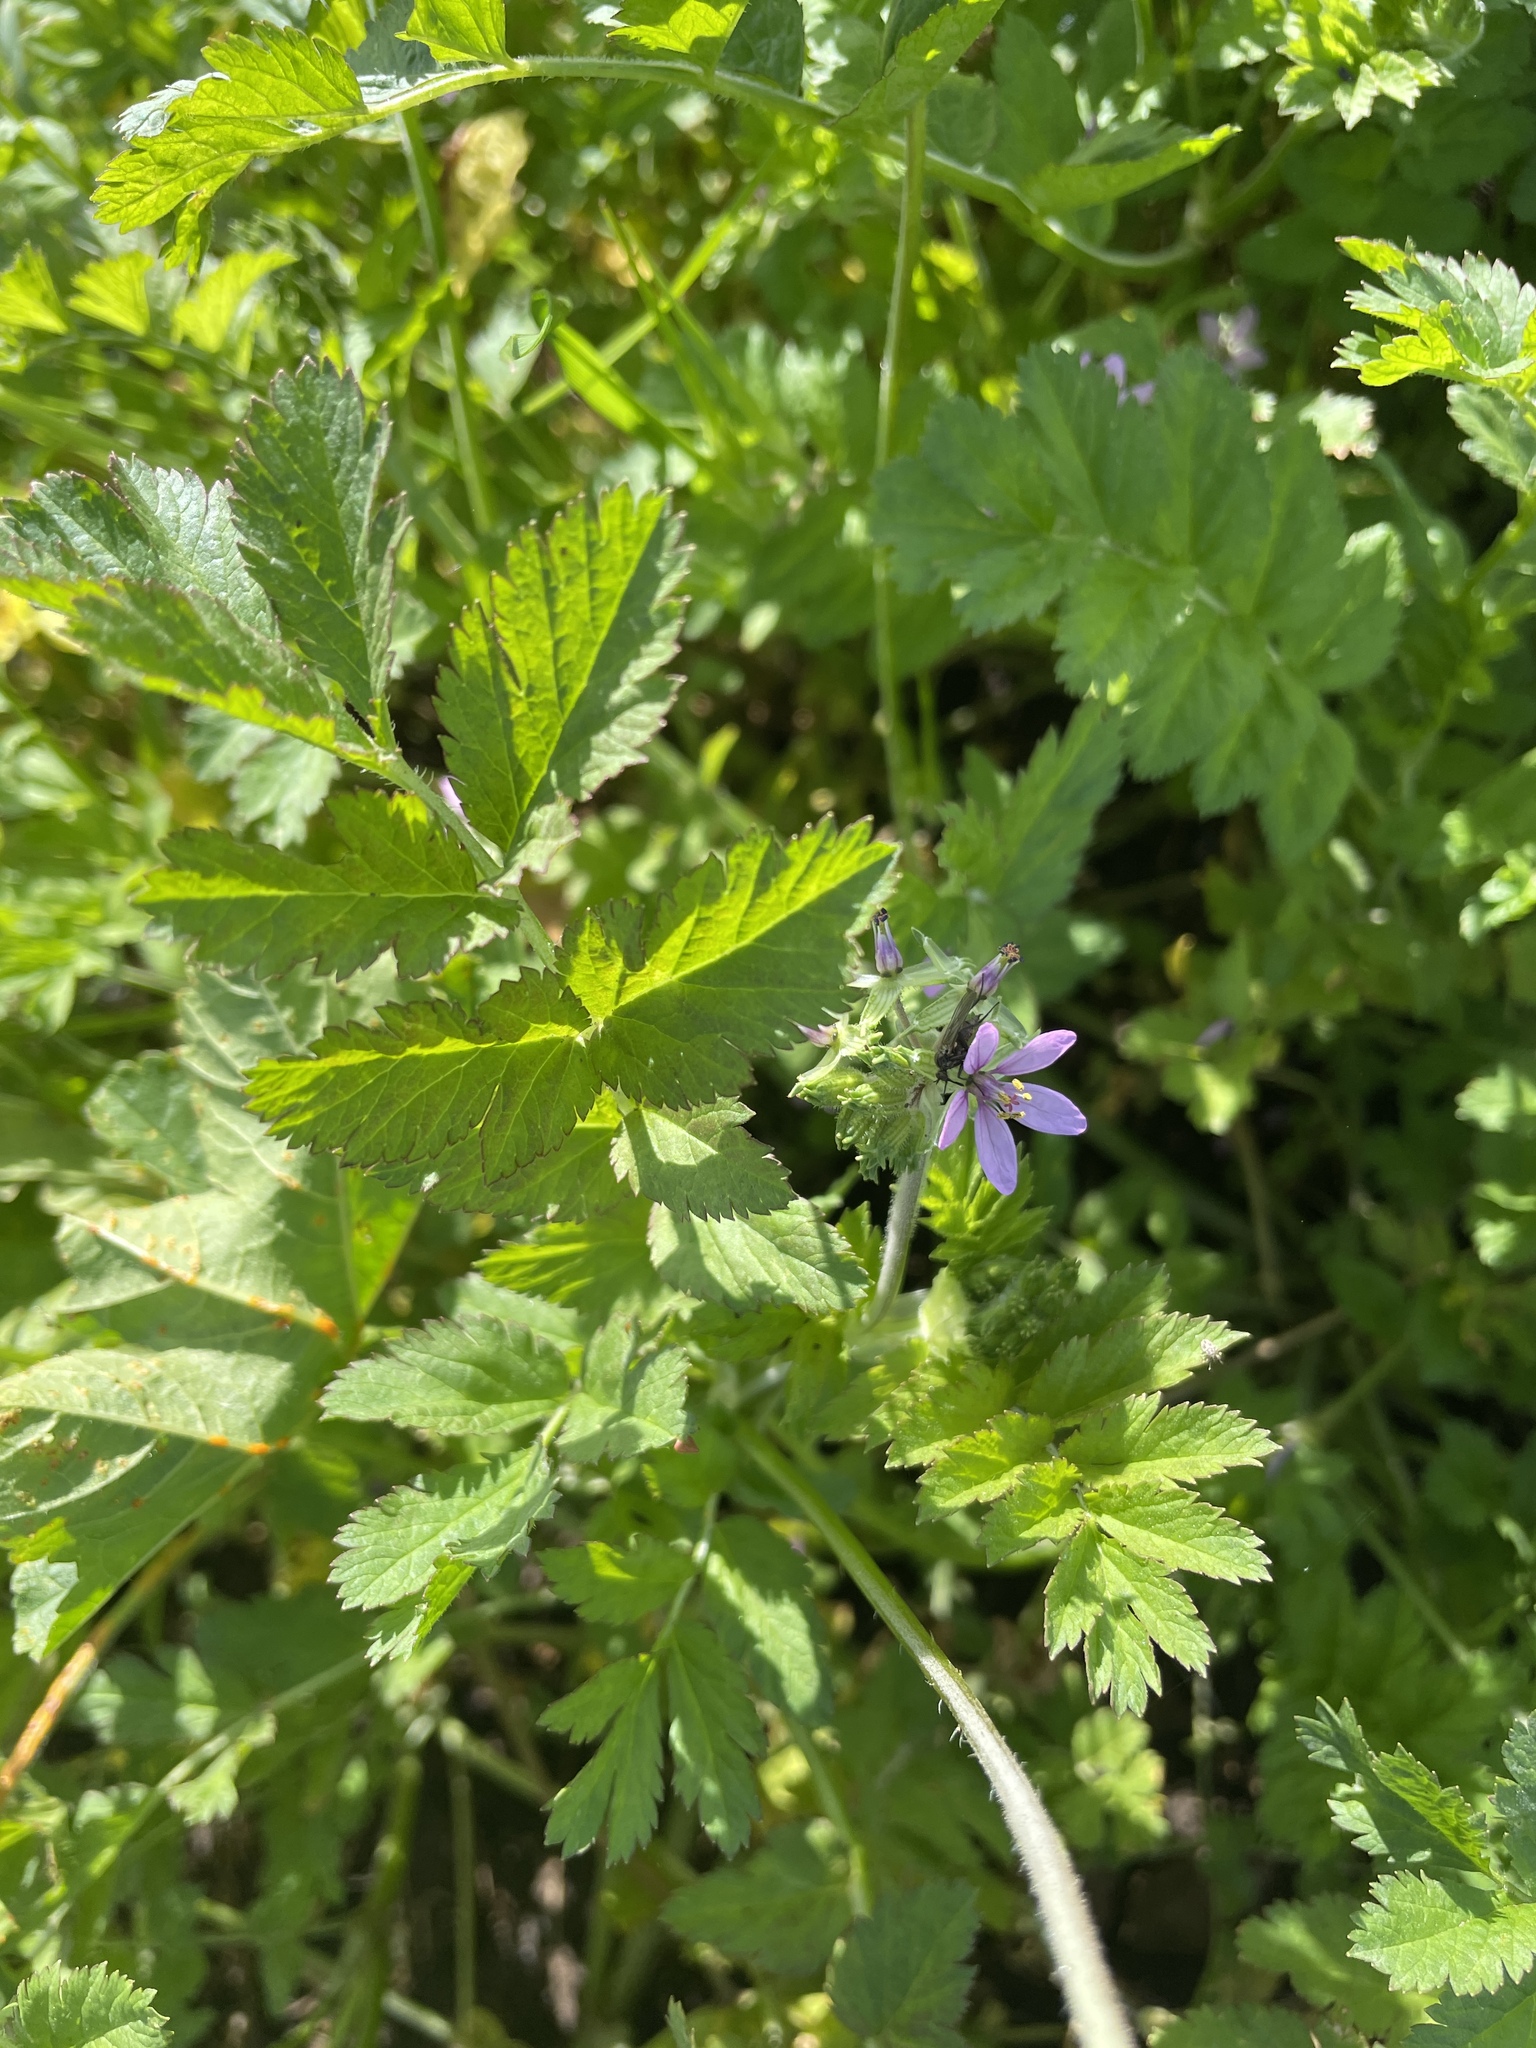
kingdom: Plantae
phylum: Tracheophyta
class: Magnoliopsida
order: Geraniales
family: Geraniaceae
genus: Erodium
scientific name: Erodium moschatum
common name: Musk stork's-bill
